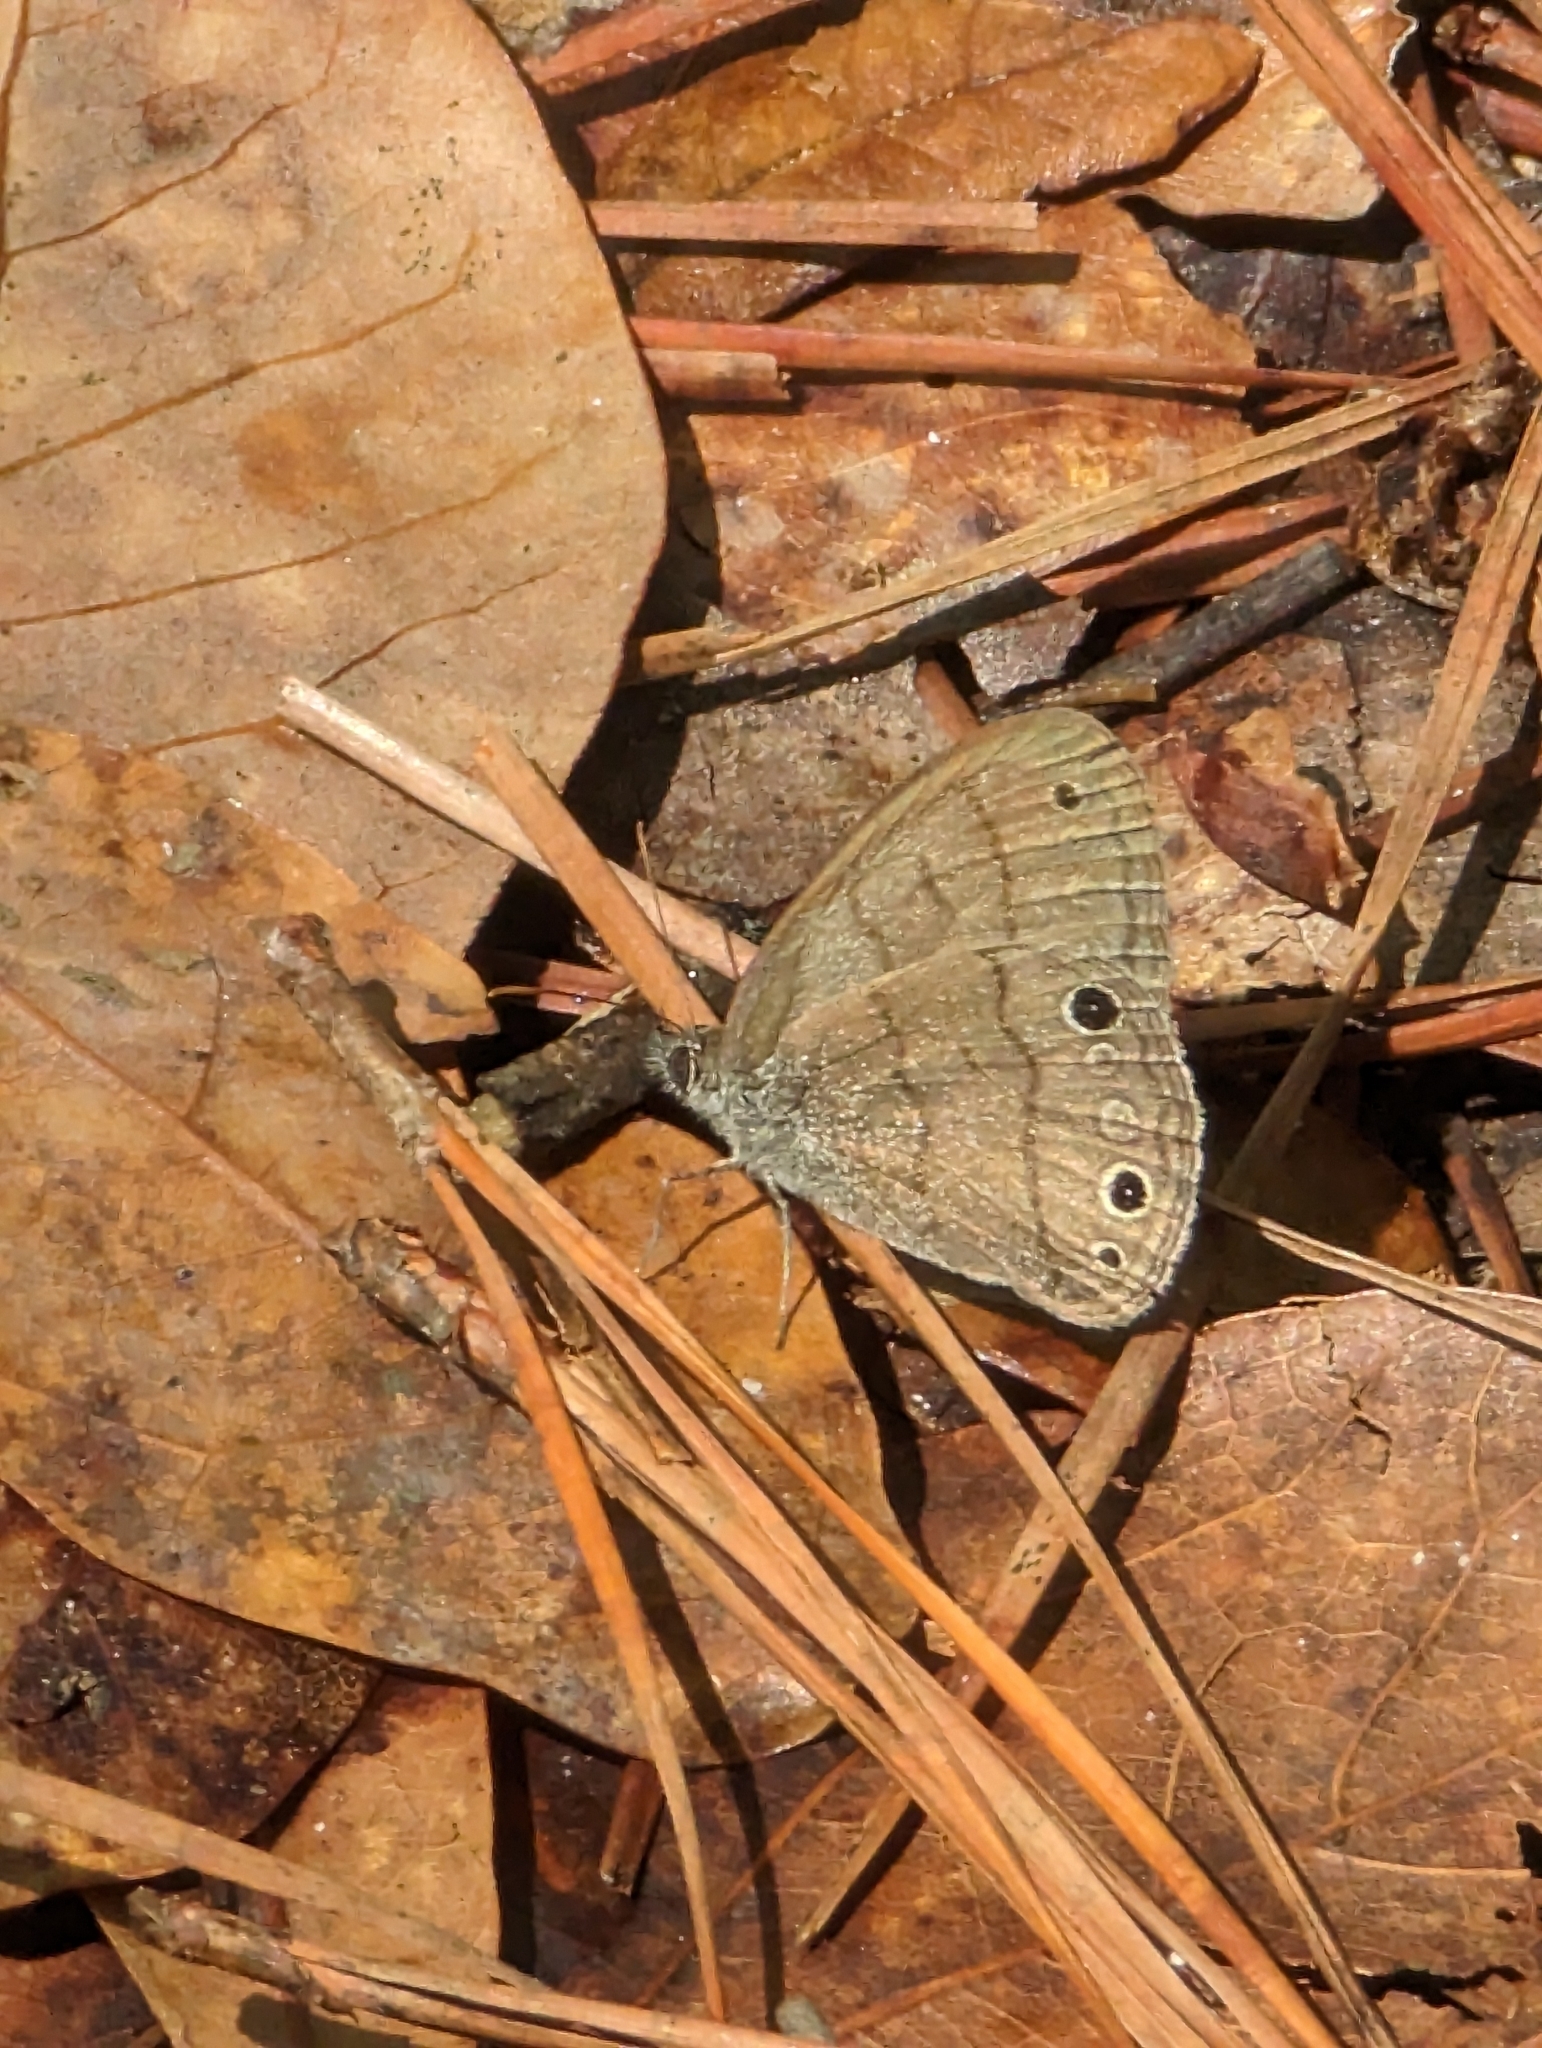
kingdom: Animalia
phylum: Arthropoda
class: Insecta
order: Lepidoptera
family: Nymphalidae
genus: Hermeuptychia
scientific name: Hermeuptychia hermes
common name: Hermes satyr
